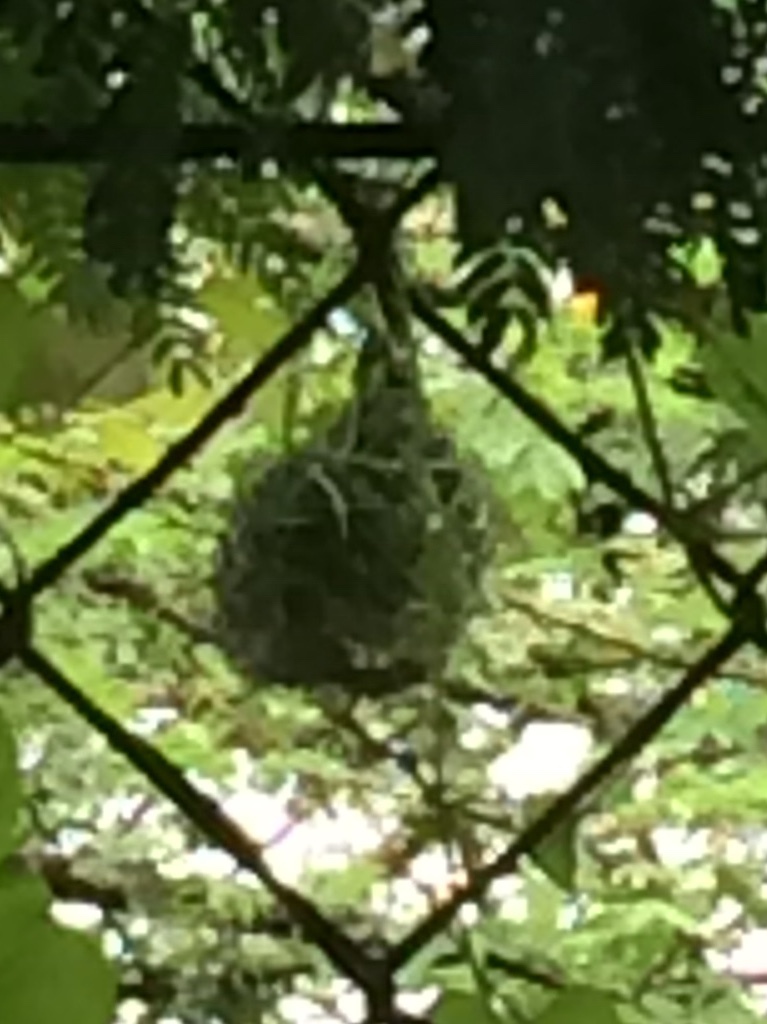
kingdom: Animalia
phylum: Chordata
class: Aves
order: Passeriformes
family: Ploceidae
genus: Ploceus
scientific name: Ploceus philippinus
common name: Baya weaver
